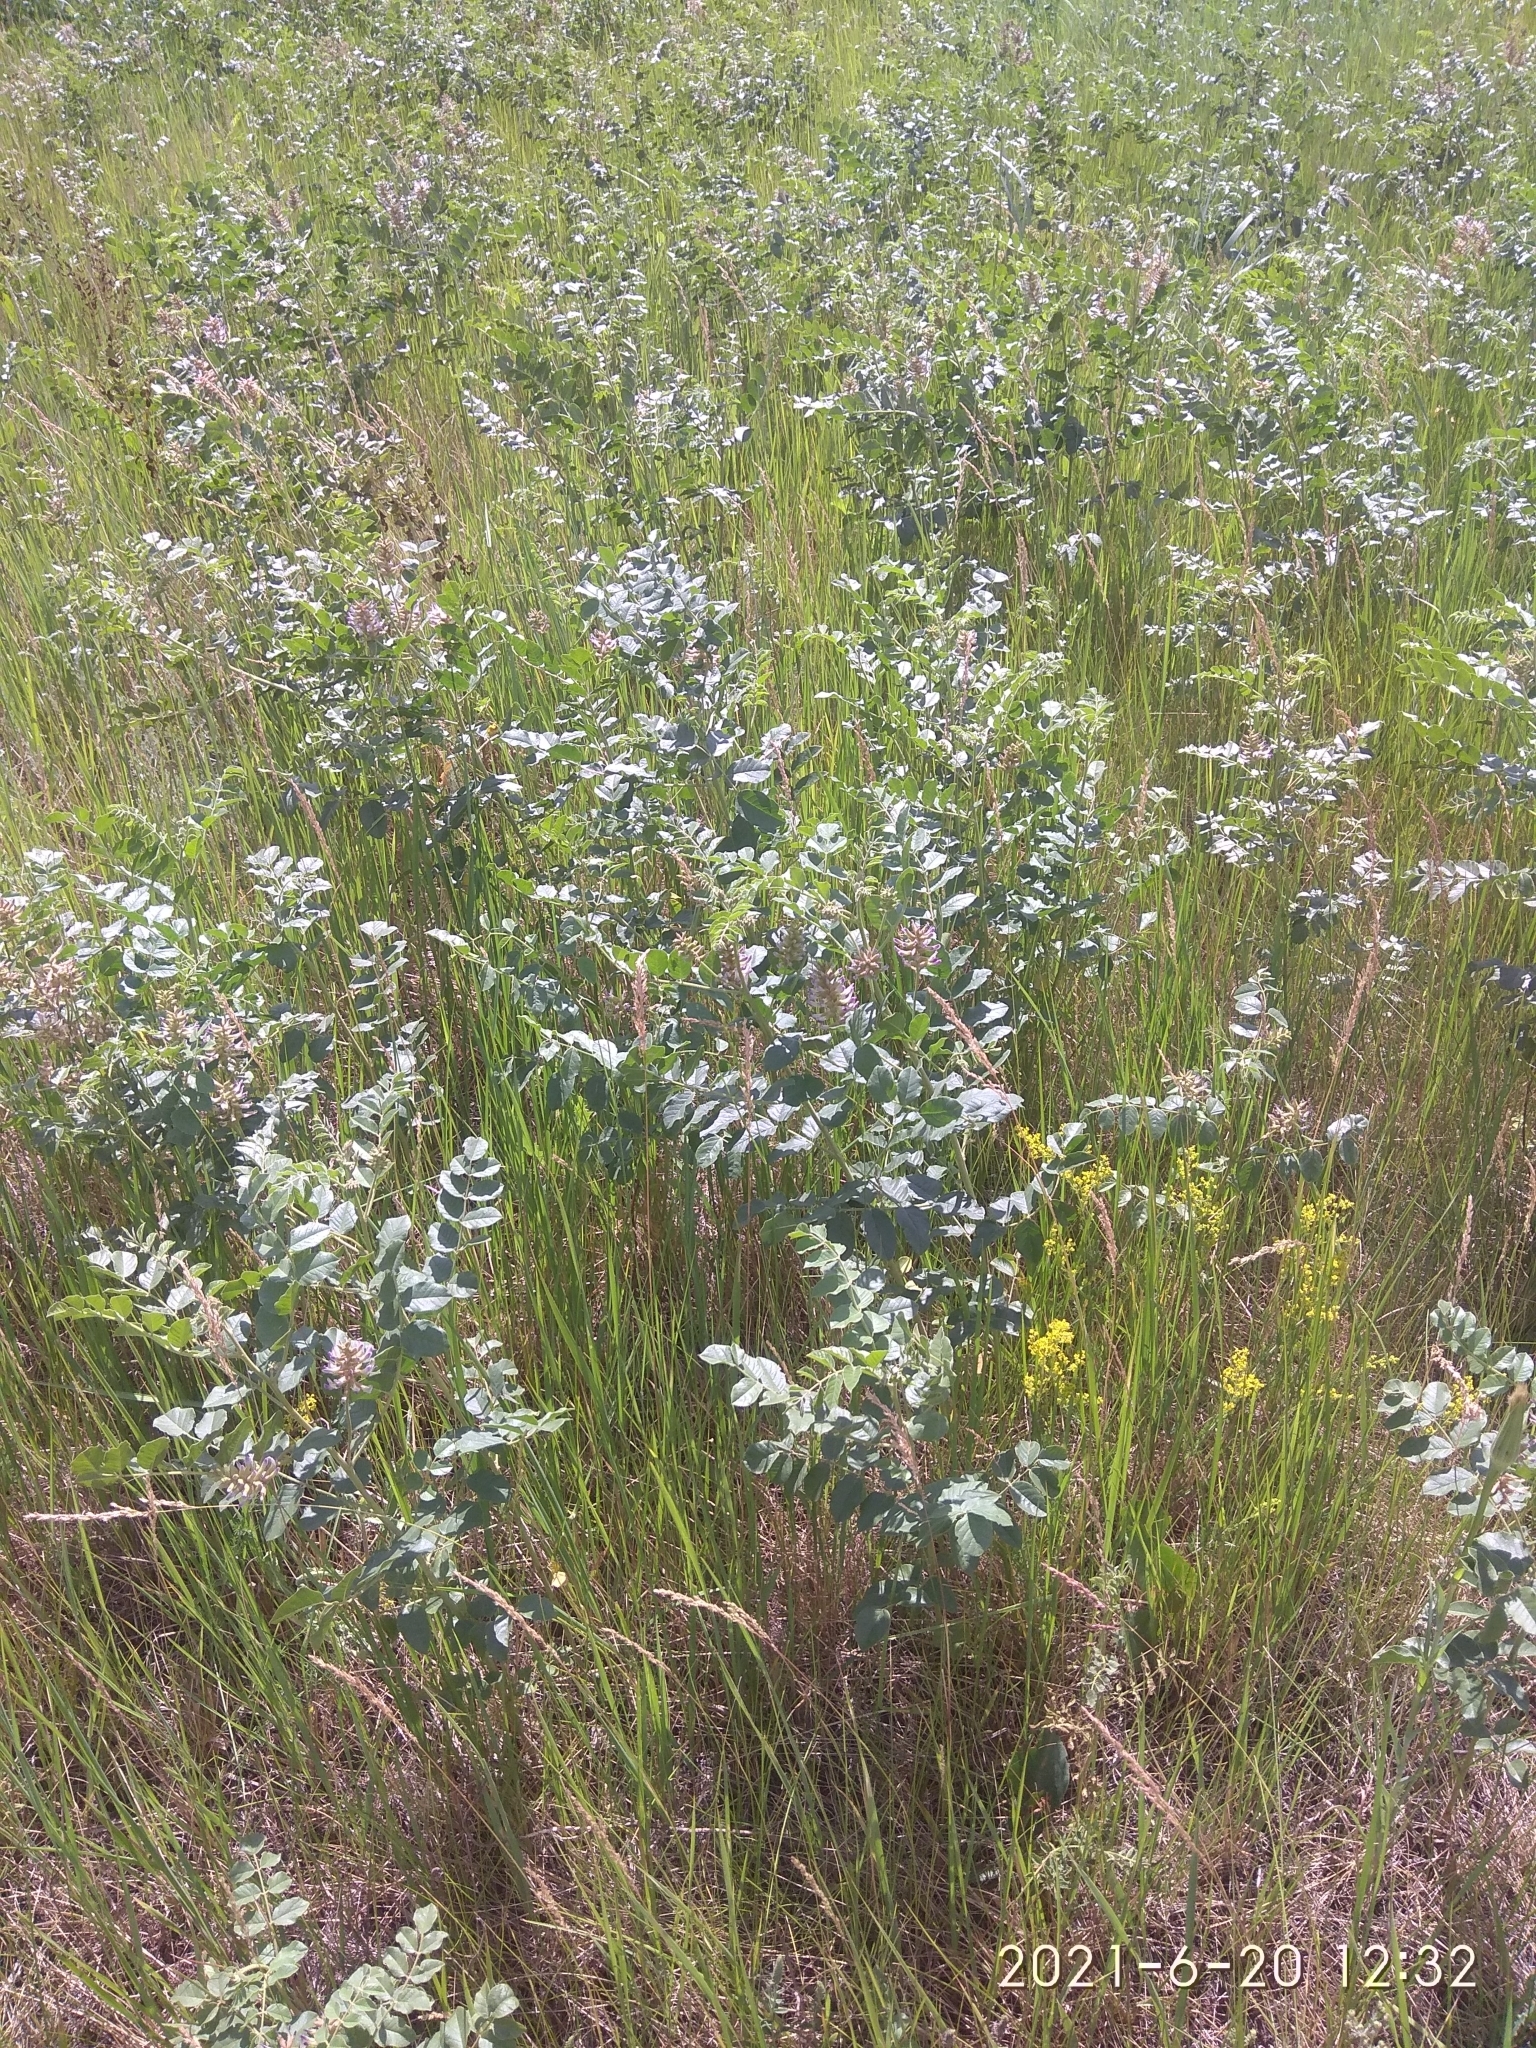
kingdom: Plantae
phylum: Tracheophyta
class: Magnoliopsida
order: Fabales
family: Fabaceae
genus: Glycyrrhiza
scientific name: Glycyrrhiza uralensis
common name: Chinese licorice
